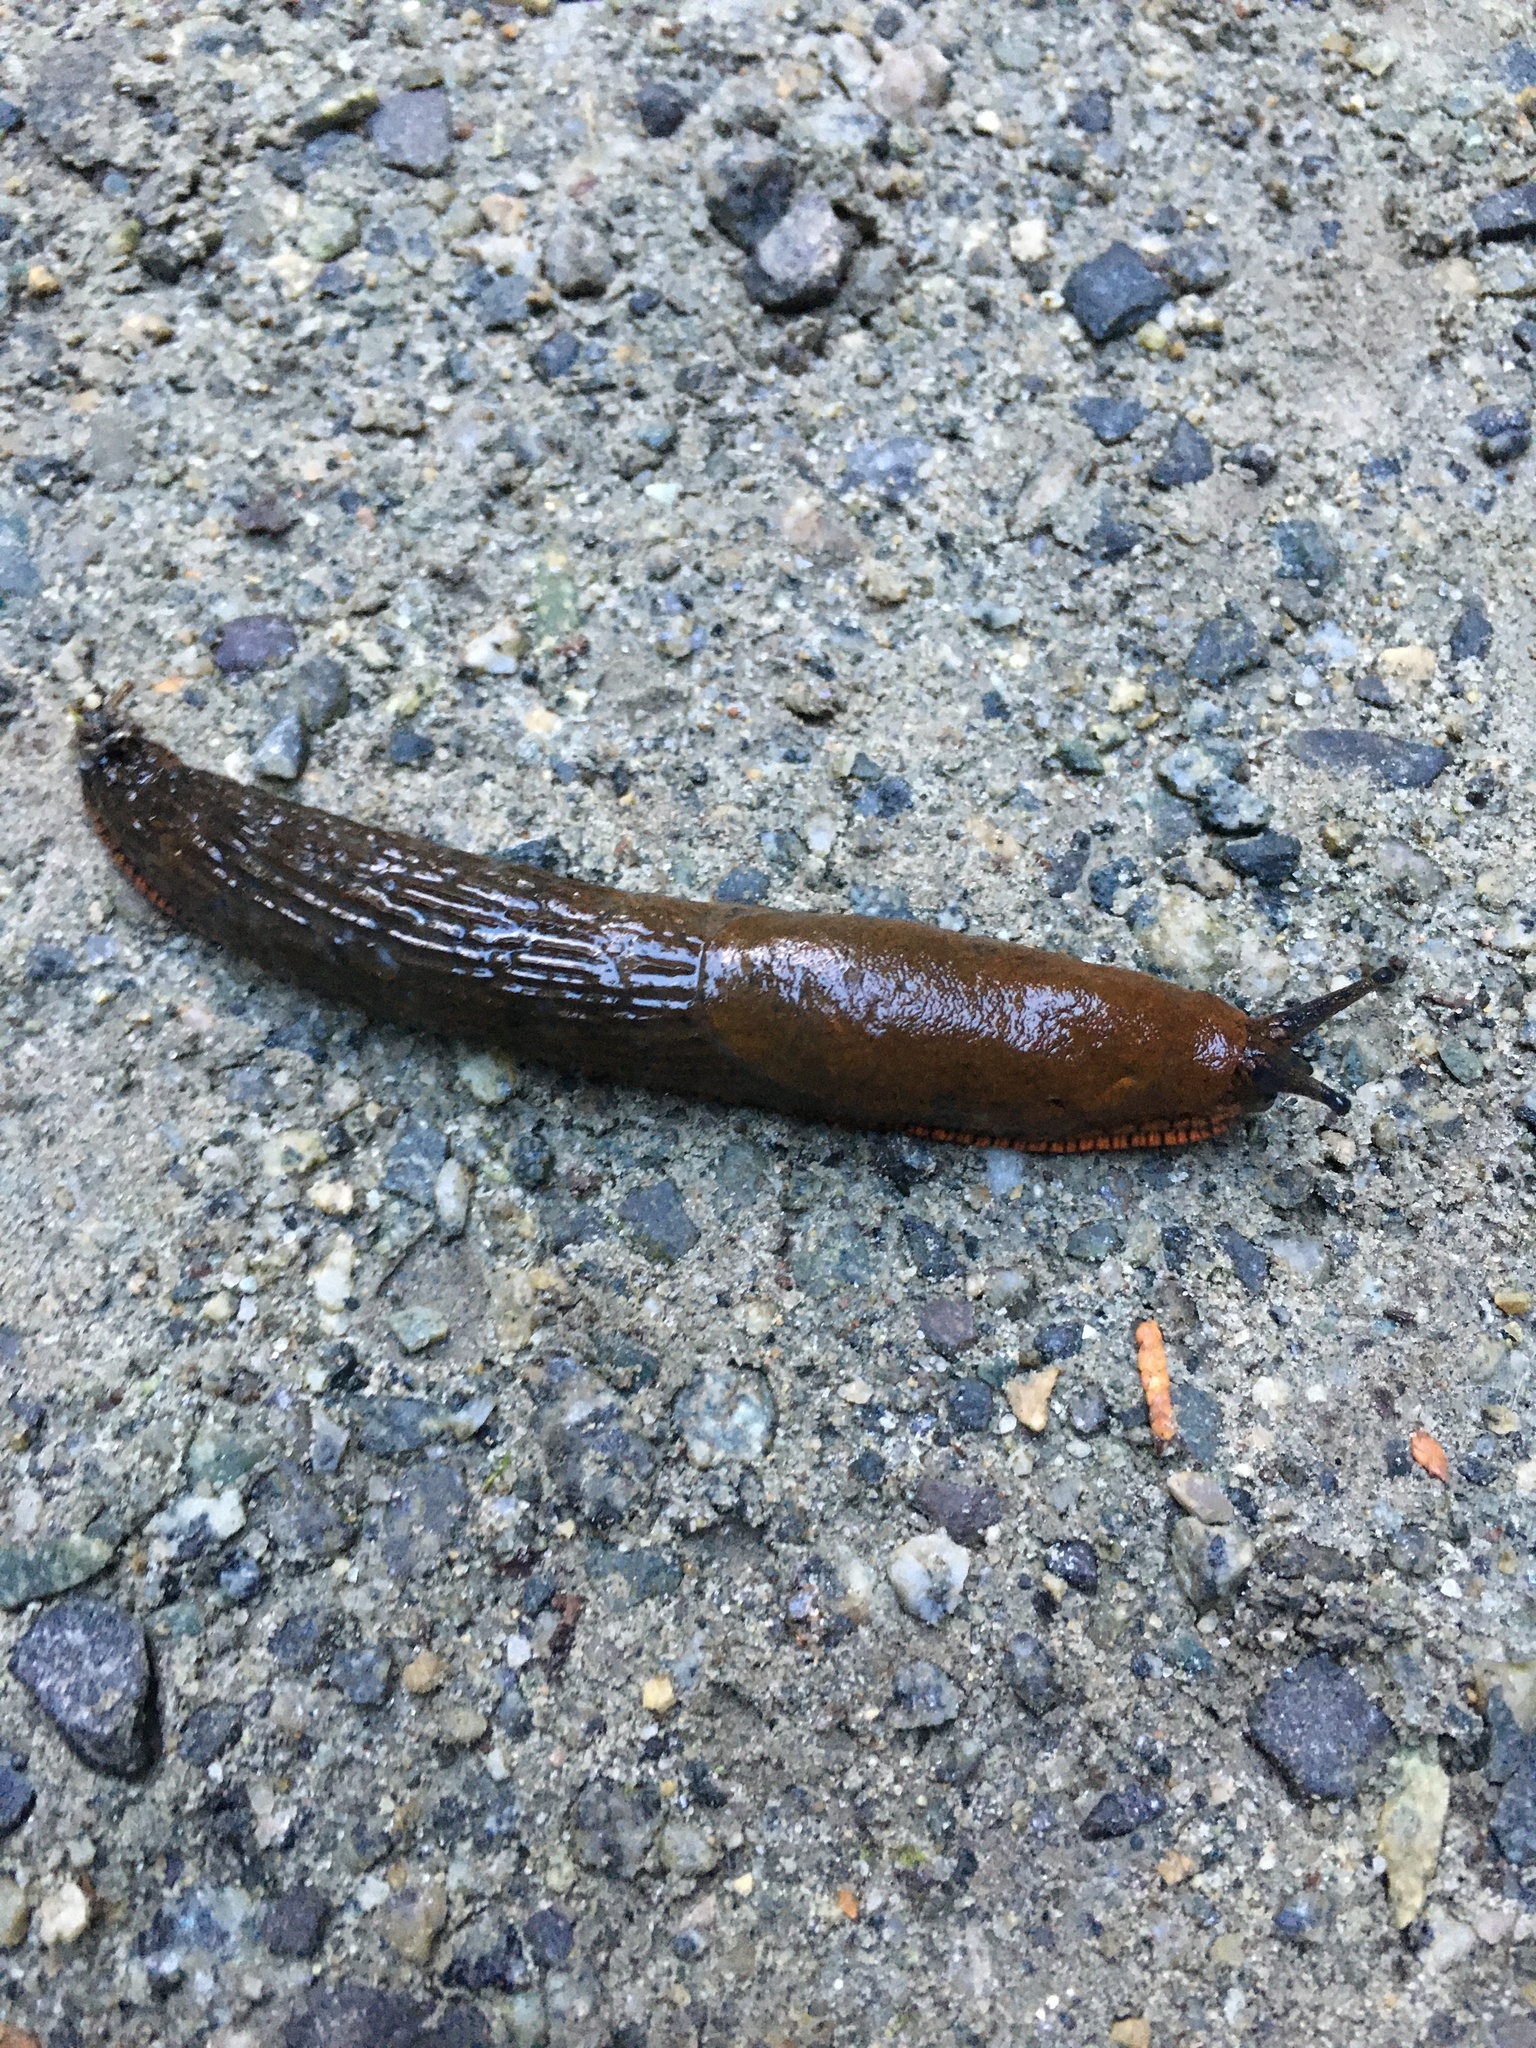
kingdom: Animalia
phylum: Mollusca
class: Gastropoda
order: Stylommatophora
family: Arionidae
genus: Arion
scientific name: Arion
